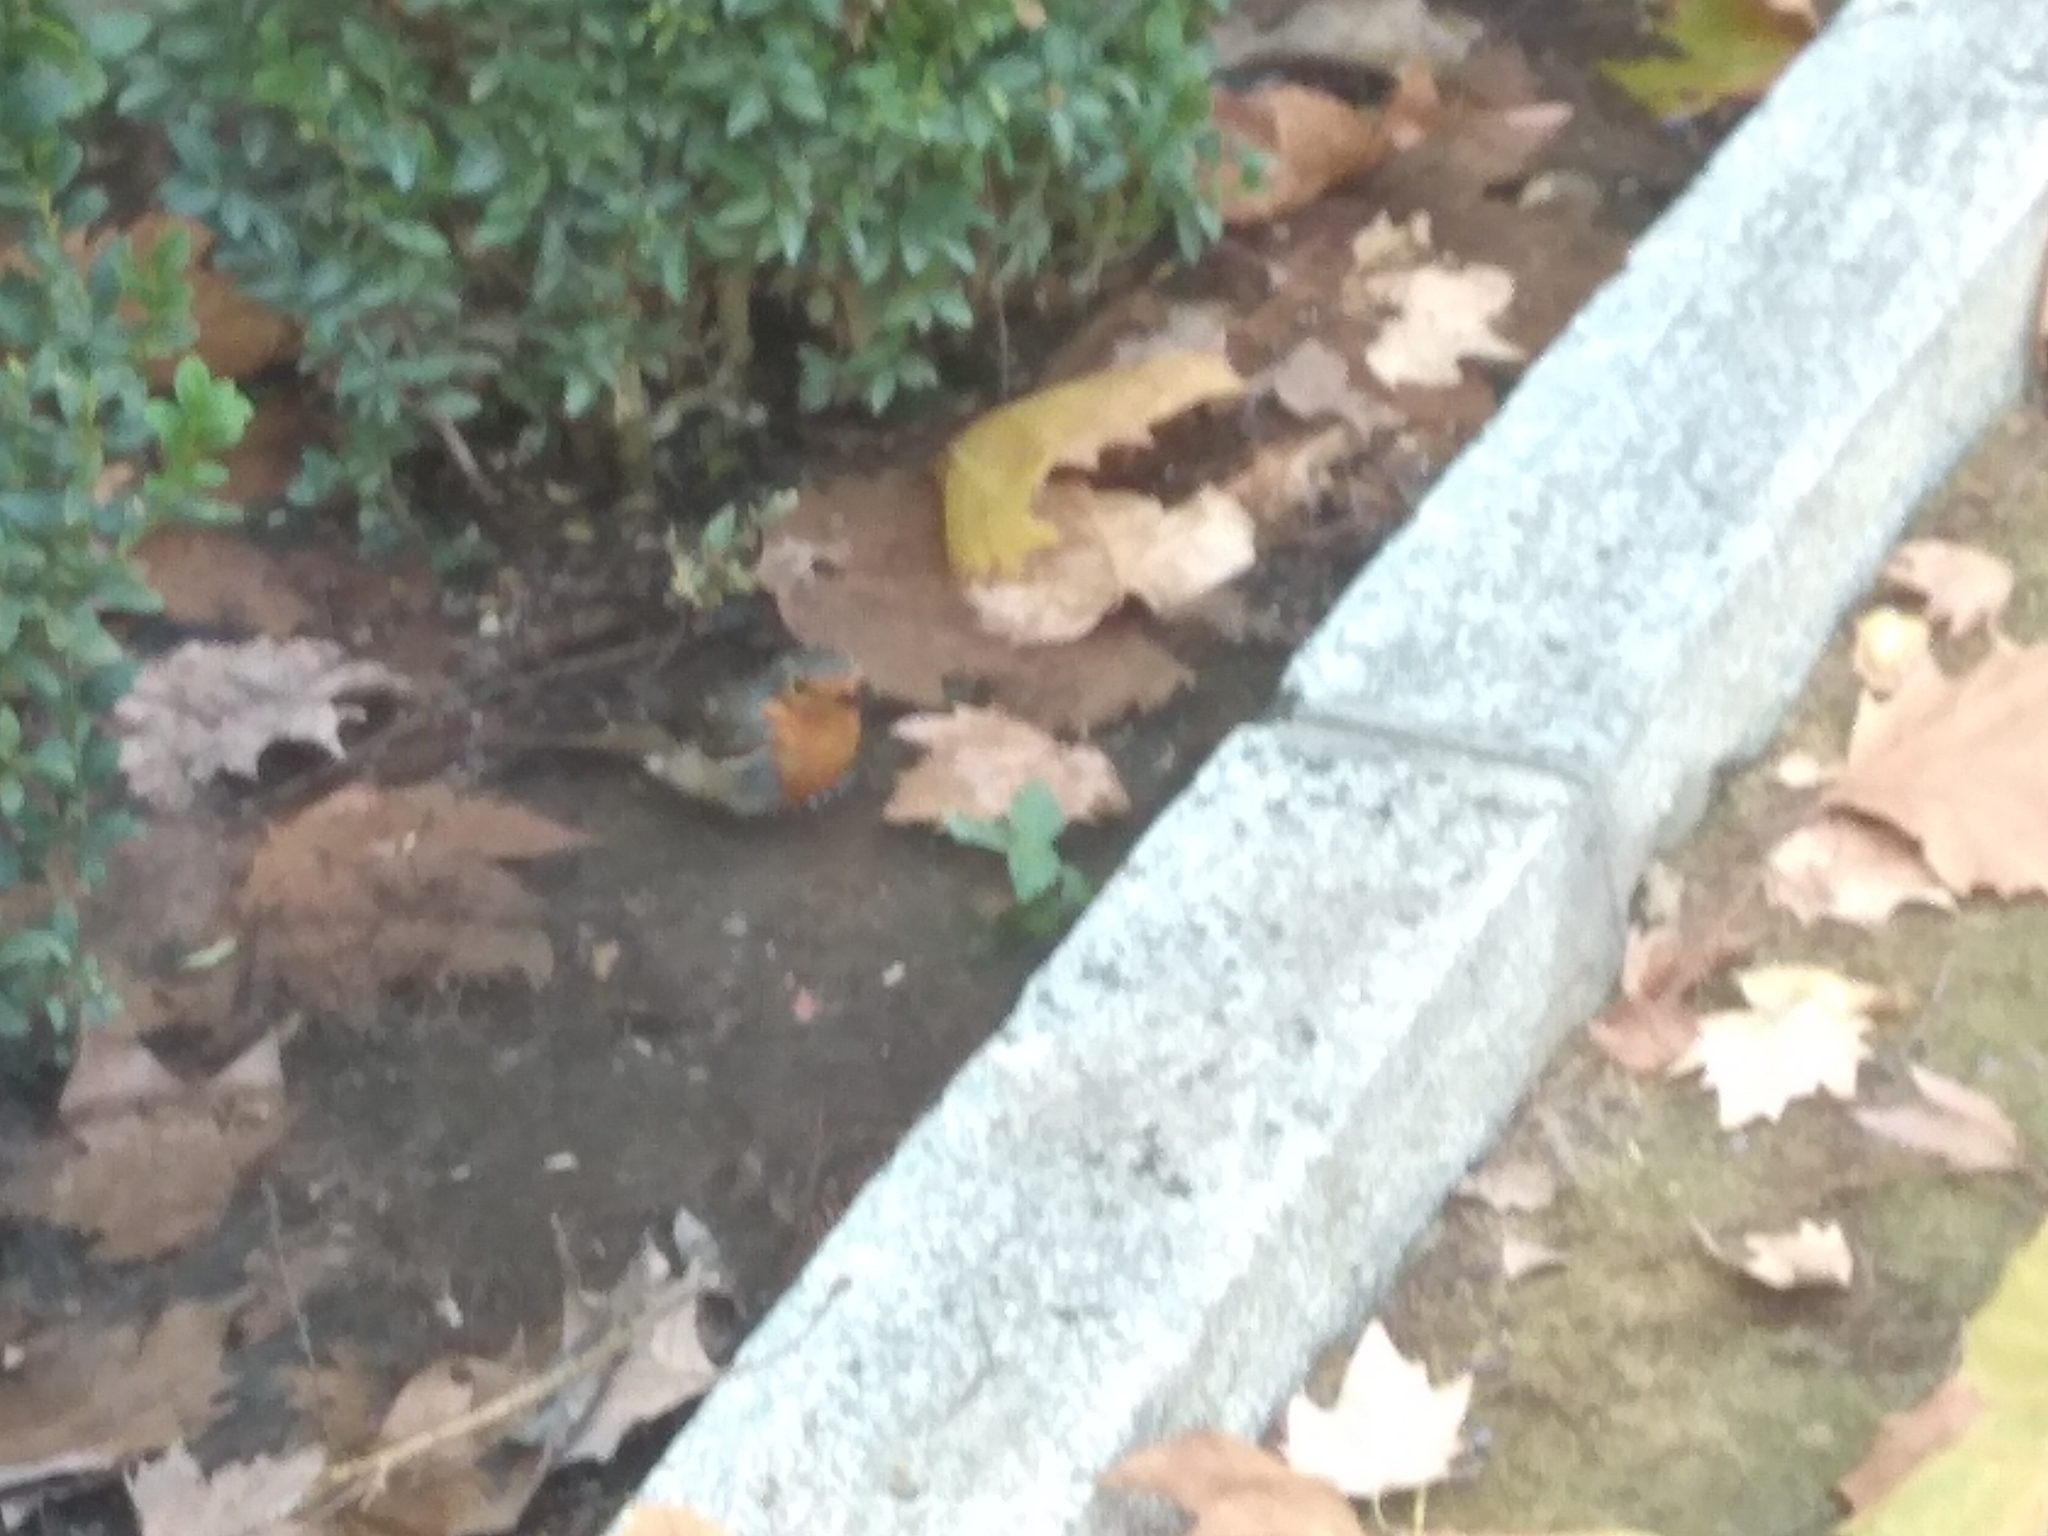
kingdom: Animalia
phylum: Chordata
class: Aves
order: Passeriformes
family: Muscicapidae
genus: Erithacus
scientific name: Erithacus rubecula
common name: European robin
